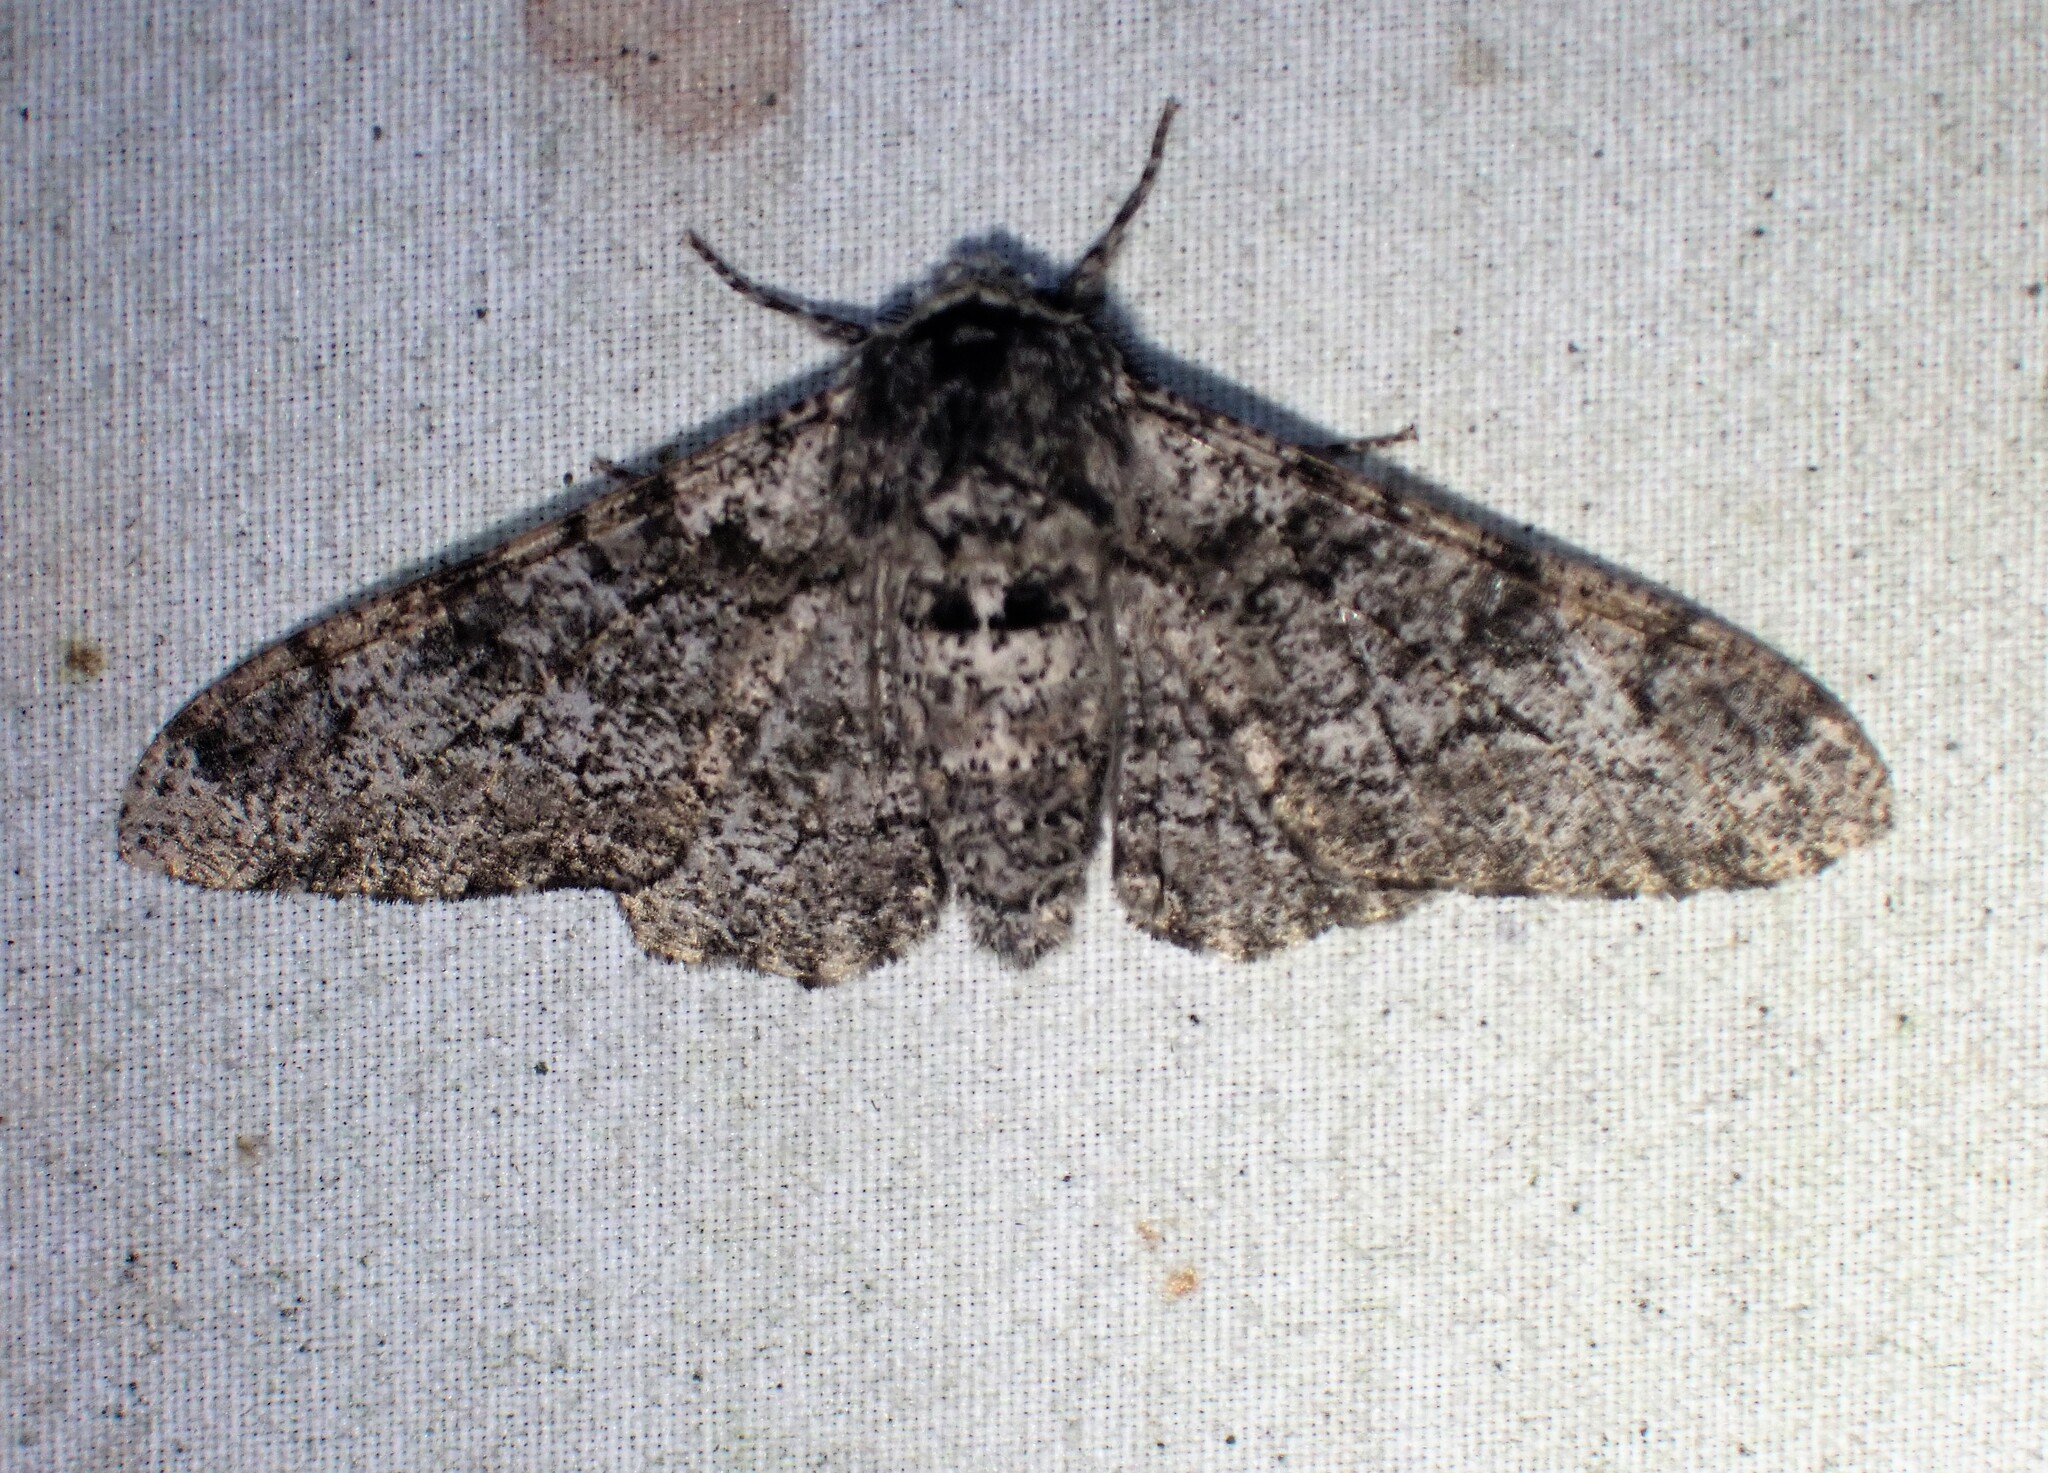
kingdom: Animalia
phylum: Arthropoda
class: Insecta
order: Lepidoptera
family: Geometridae
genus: Biston
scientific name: Biston betularia
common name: Peppered moth
